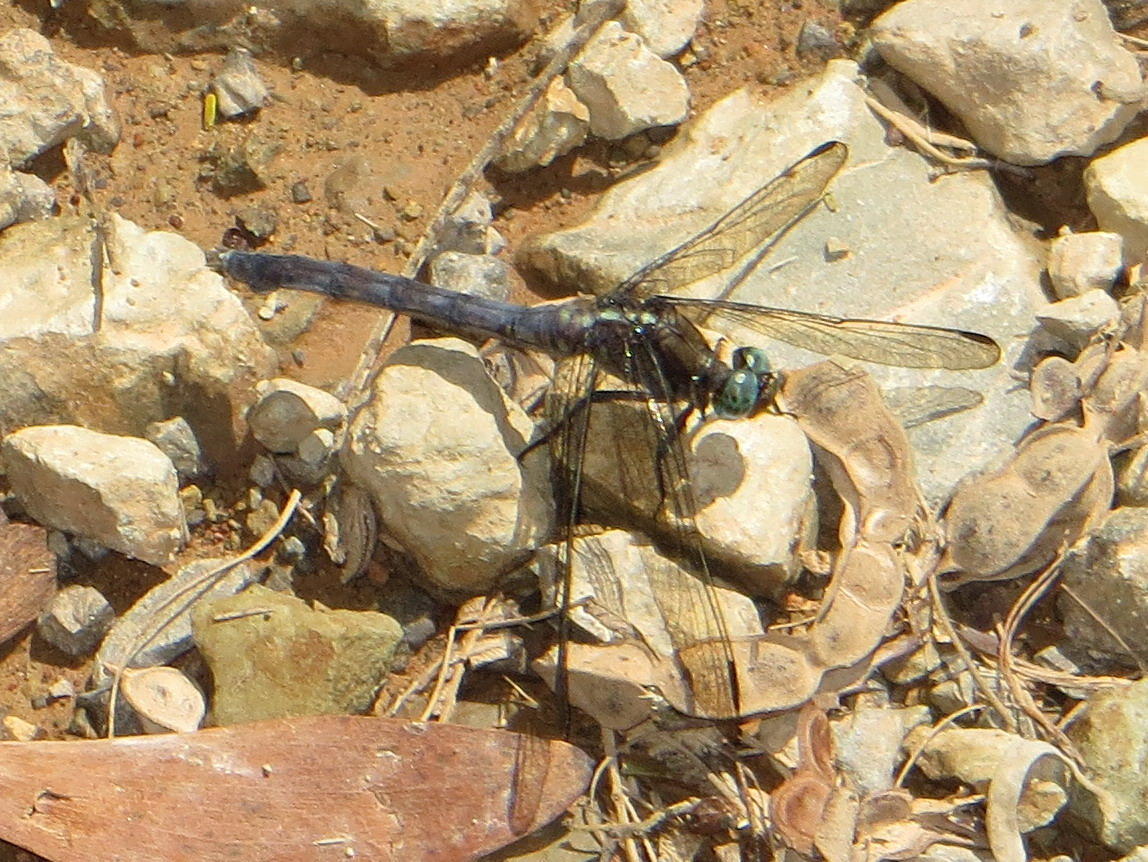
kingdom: Animalia
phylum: Arthropoda
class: Insecta
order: Odonata
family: Libellulidae
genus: Orthetrum
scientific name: Orthetrum julia
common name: Julia skimmer
